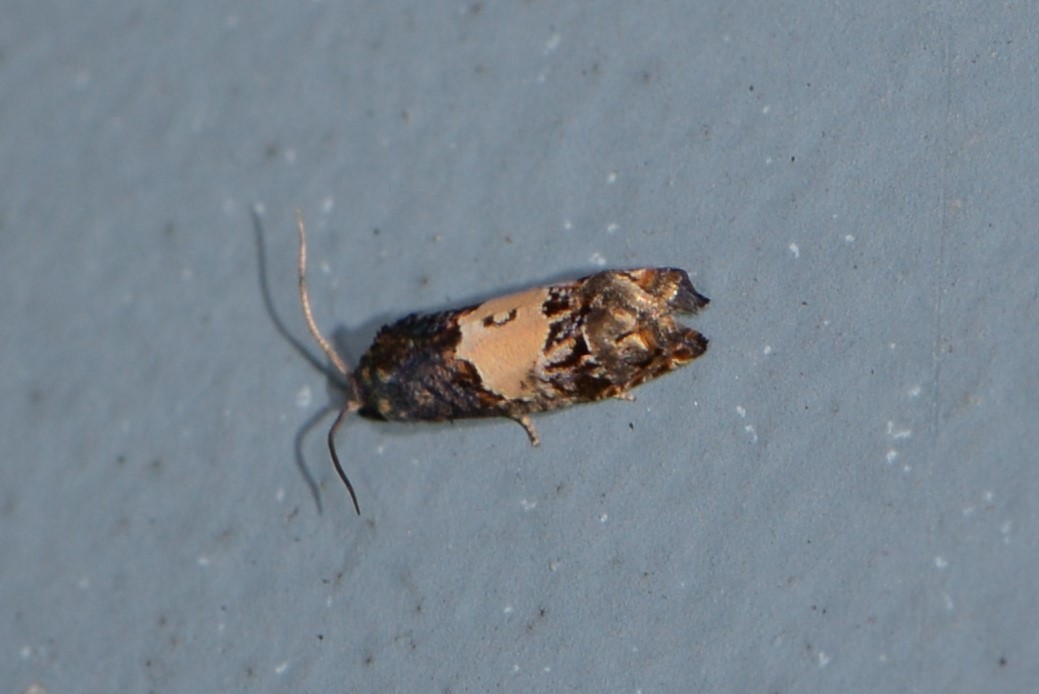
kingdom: Animalia
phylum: Arthropoda
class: Insecta
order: Lepidoptera
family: Tortricidae
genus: Epiblema
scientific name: Epiblema glenni
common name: Glenn's epiblema
